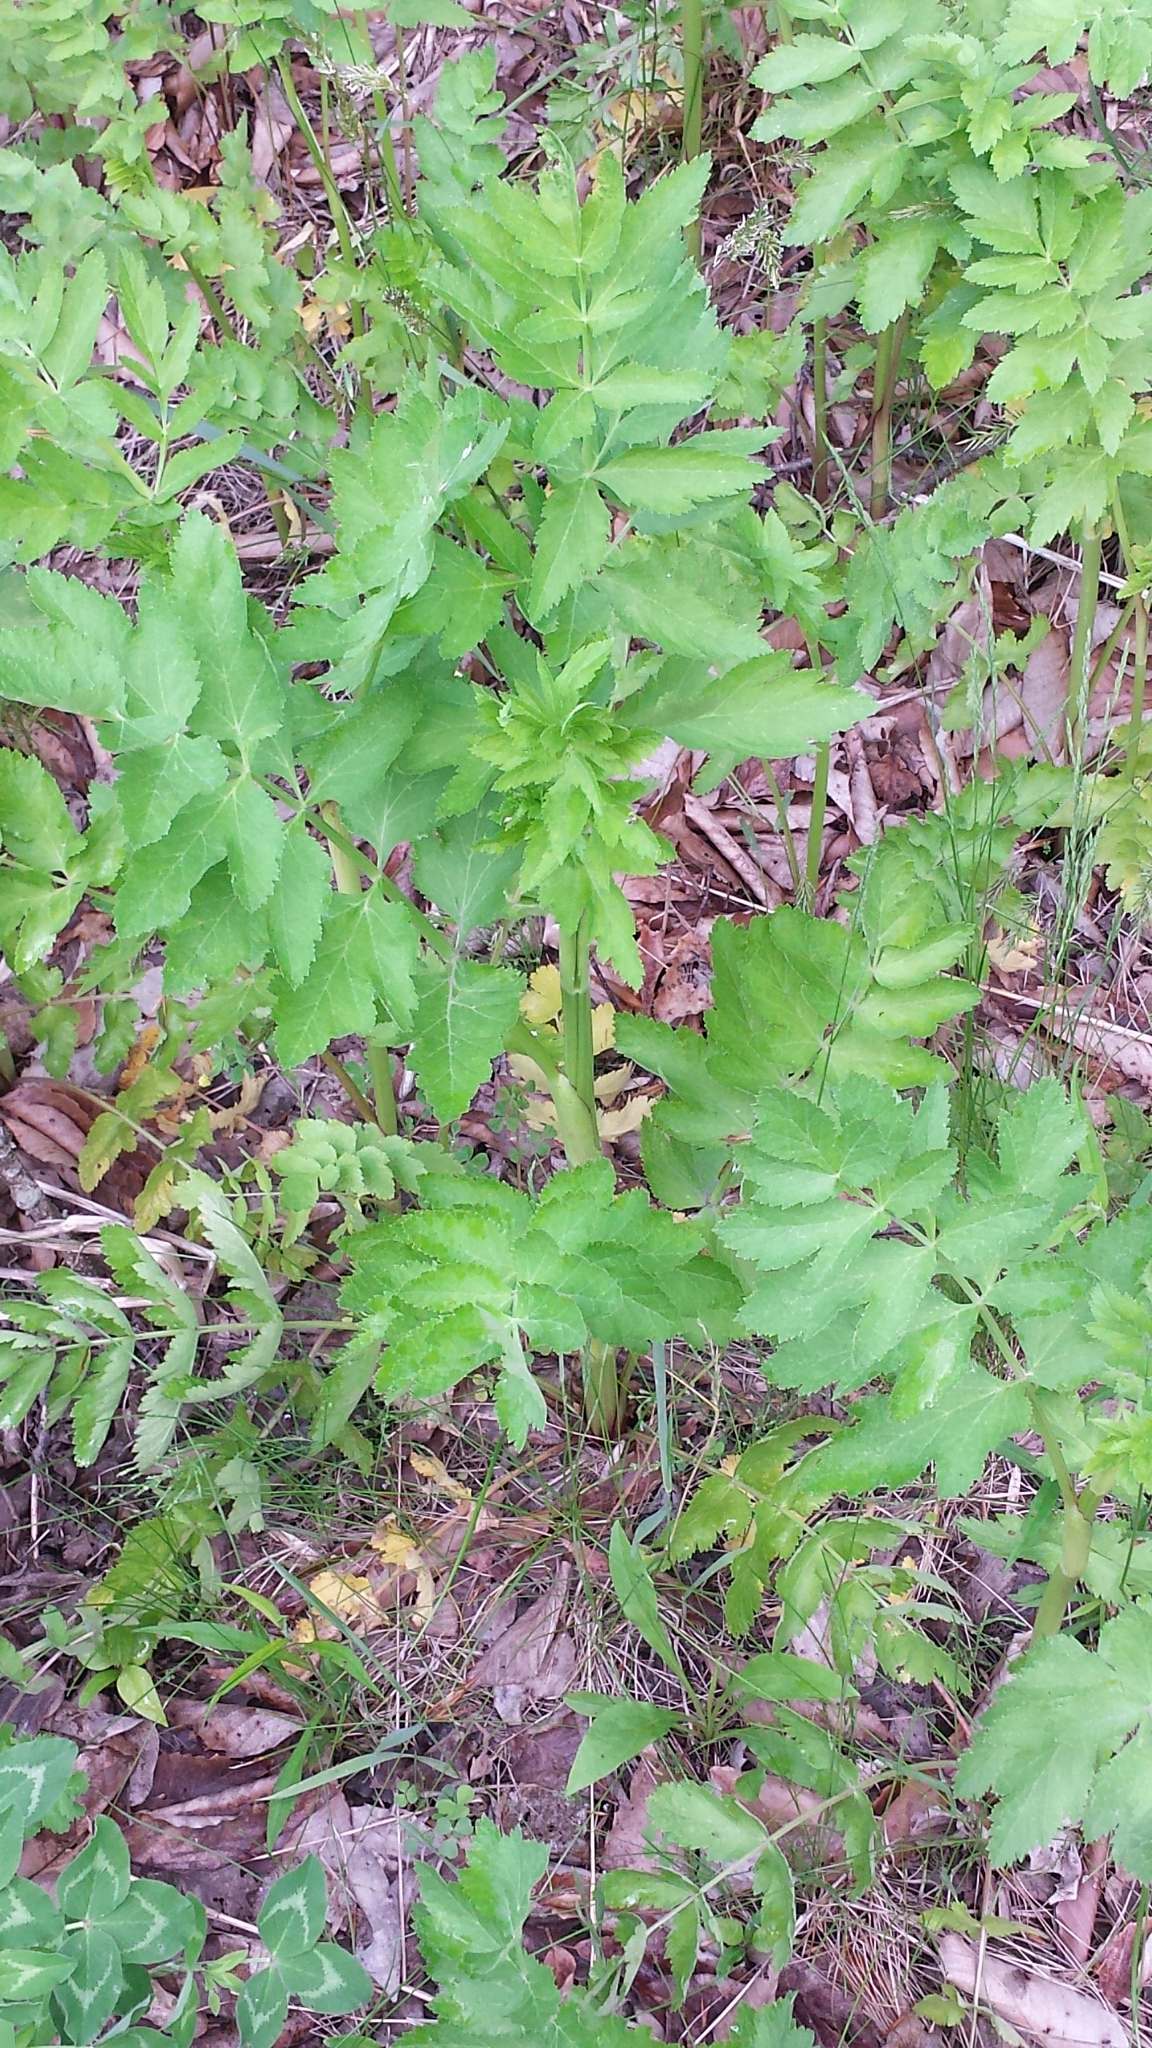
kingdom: Plantae
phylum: Tracheophyta
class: Magnoliopsida
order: Apiales
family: Apiaceae
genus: Pastinaca
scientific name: Pastinaca sativa
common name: Wild parsnip
